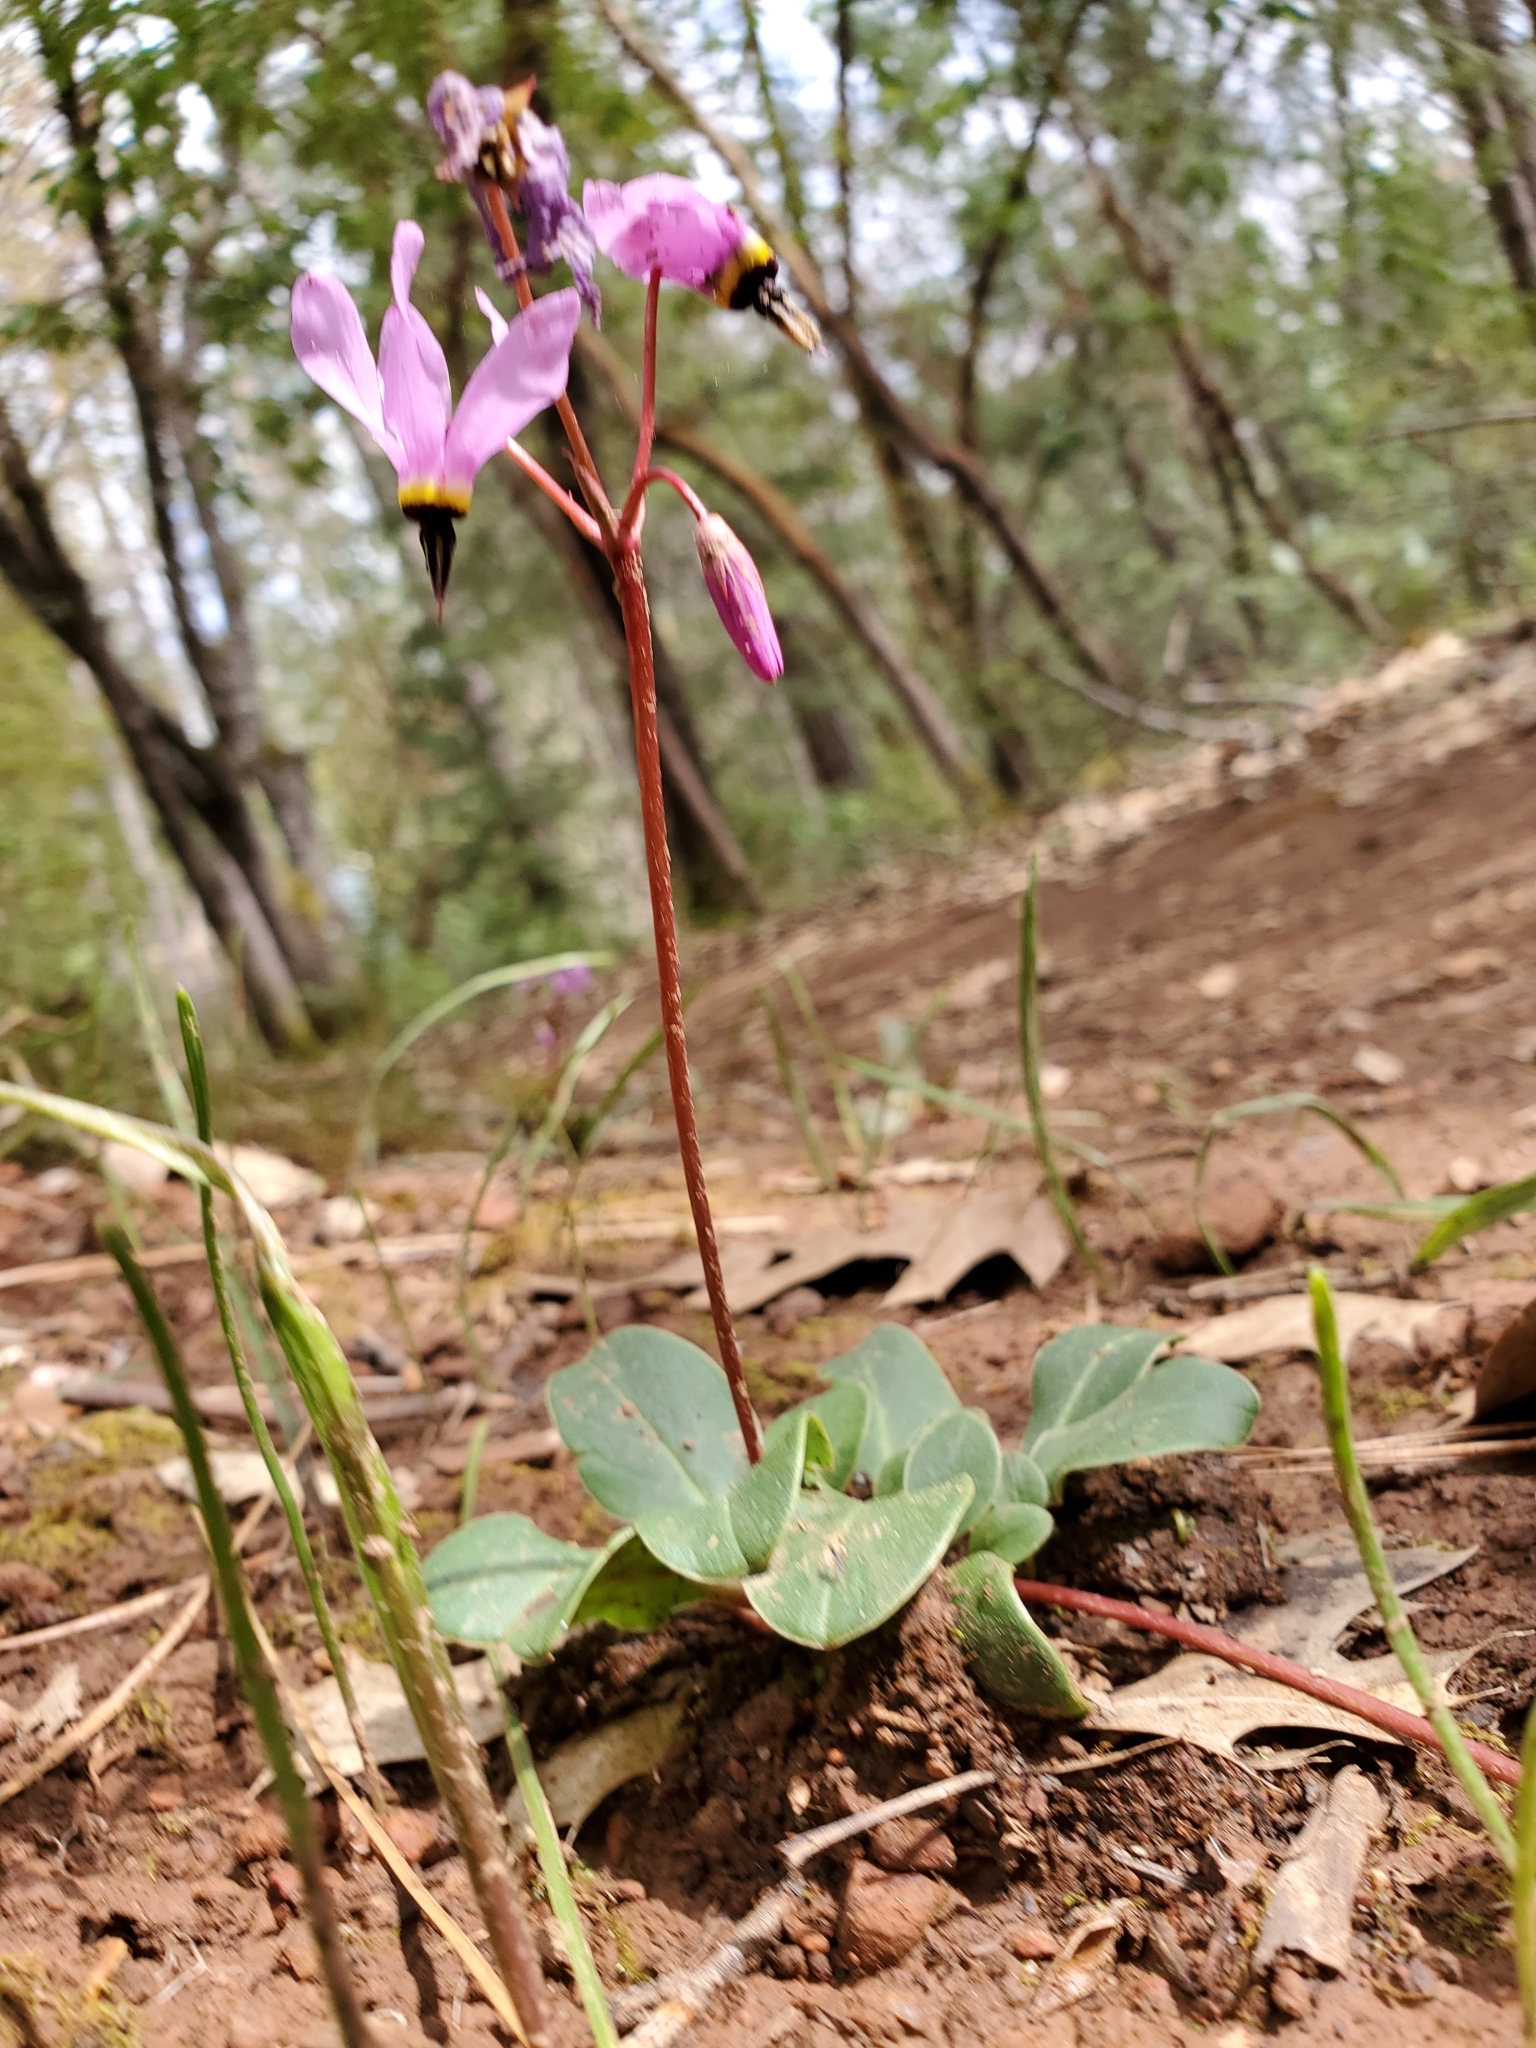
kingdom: Plantae
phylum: Tracheophyta
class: Magnoliopsida
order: Ericales
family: Primulaceae
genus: Dodecatheon
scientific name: Dodecatheon hendersonii
